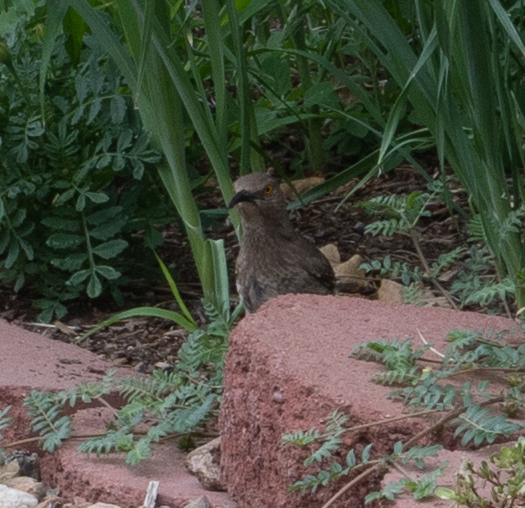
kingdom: Animalia
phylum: Chordata
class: Aves
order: Passeriformes
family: Mimidae
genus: Toxostoma
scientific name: Toxostoma curvirostre
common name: Curve-billed thrasher
